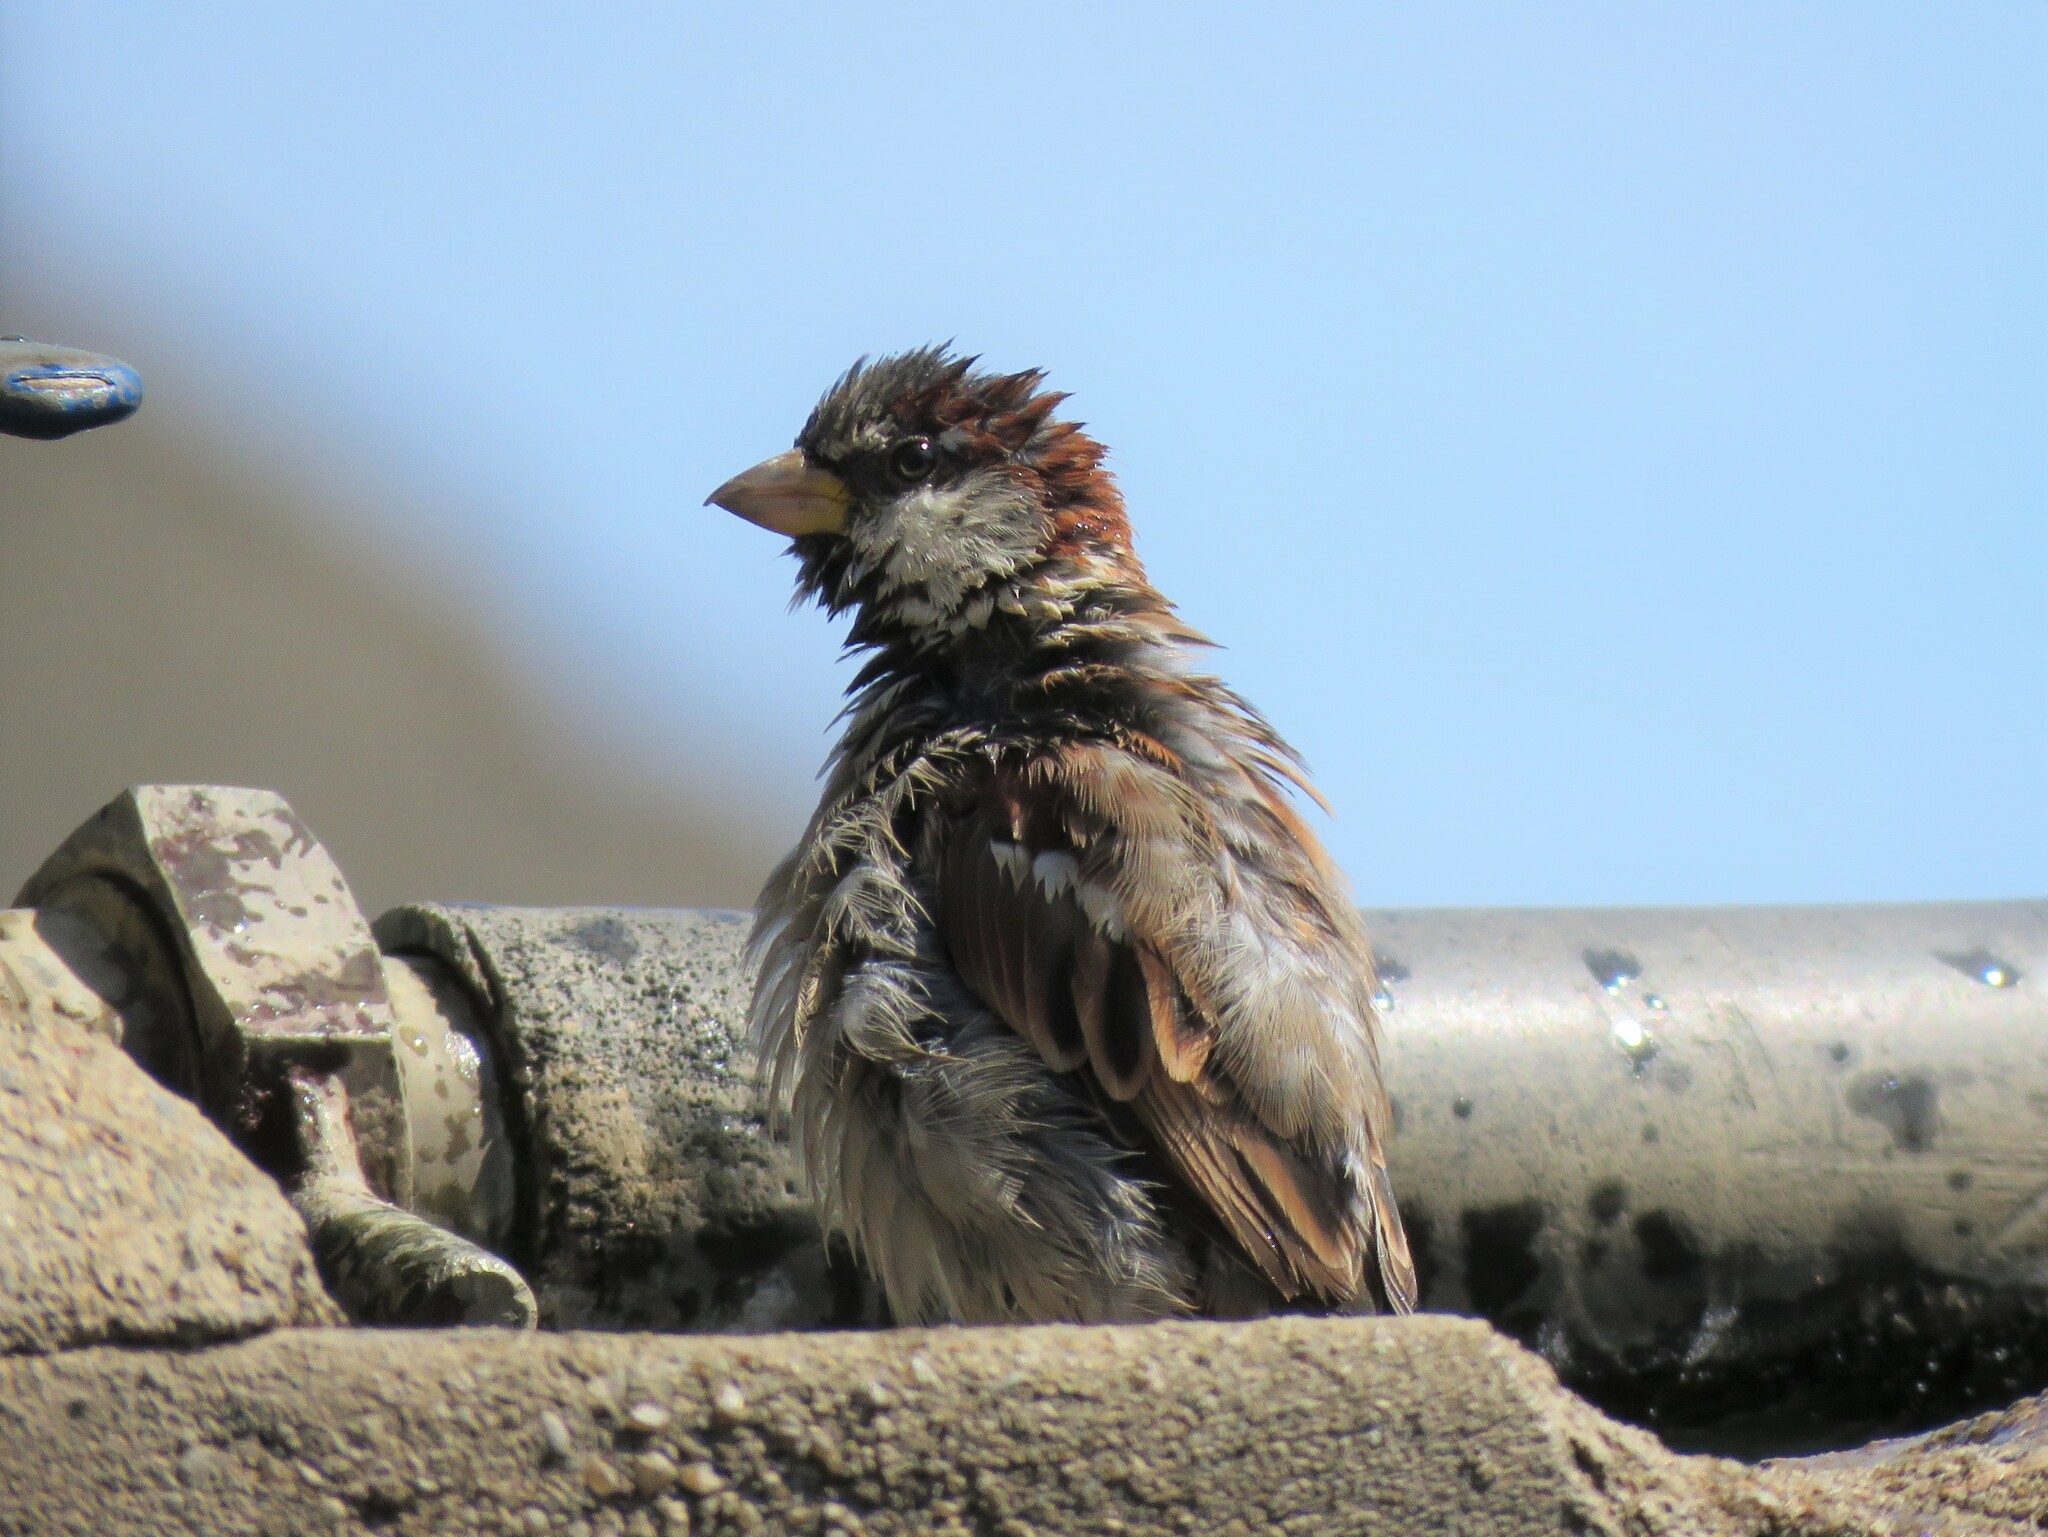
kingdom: Animalia
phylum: Chordata
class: Aves
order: Passeriformes
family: Passeridae
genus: Passer
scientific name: Passer domesticus
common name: House sparrow
